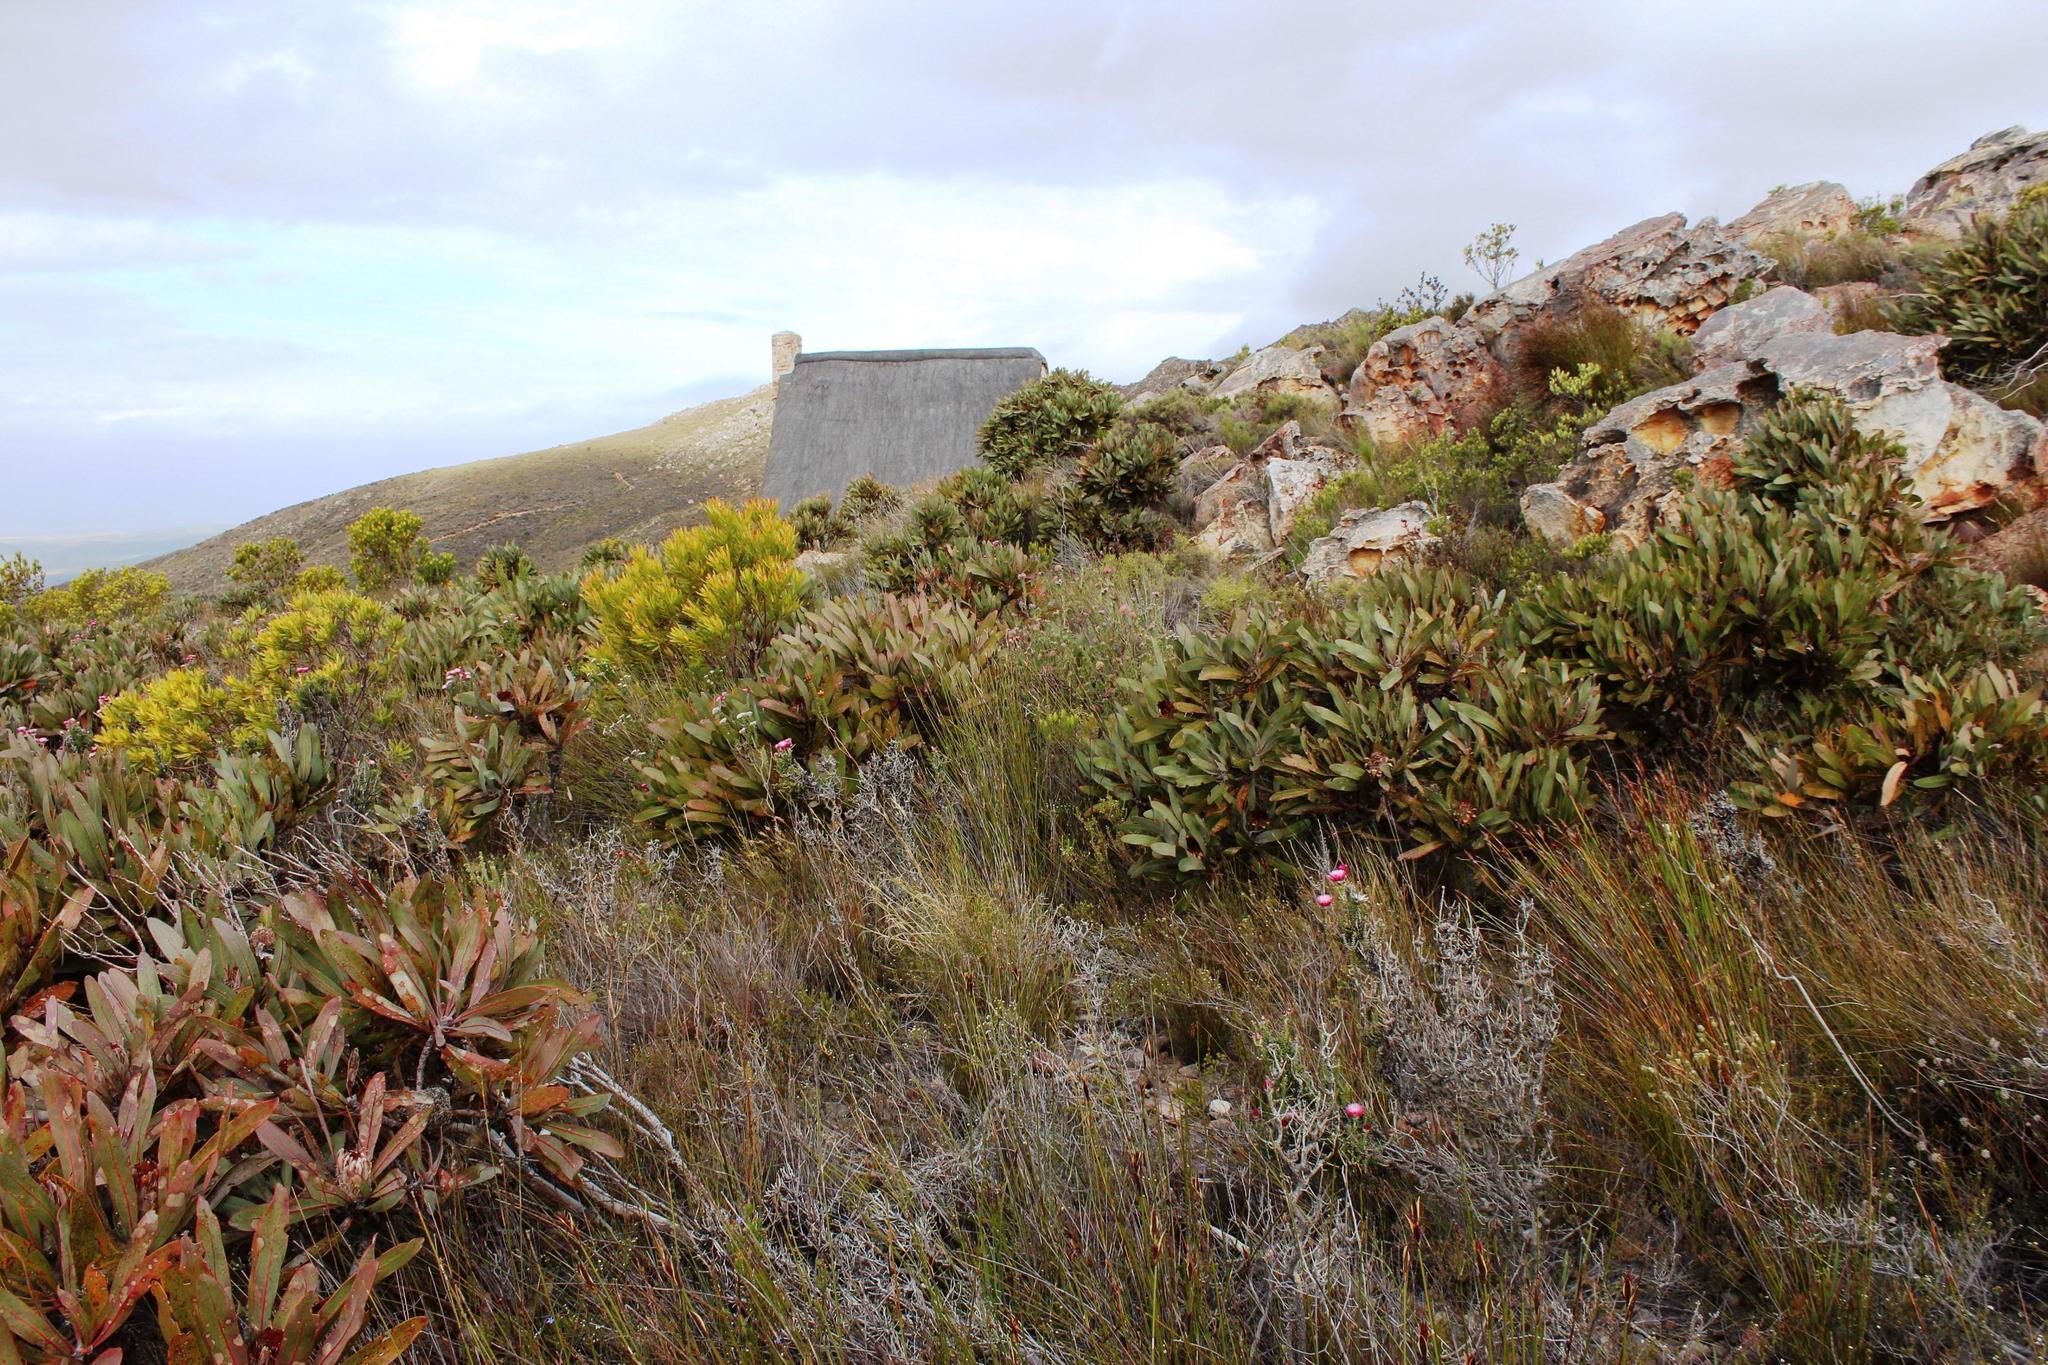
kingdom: Plantae
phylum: Tracheophyta
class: Magnoliopsida
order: Proteales
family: Proteaceae
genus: Protea
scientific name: Protea lorifolia
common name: Strap-leaved protea
